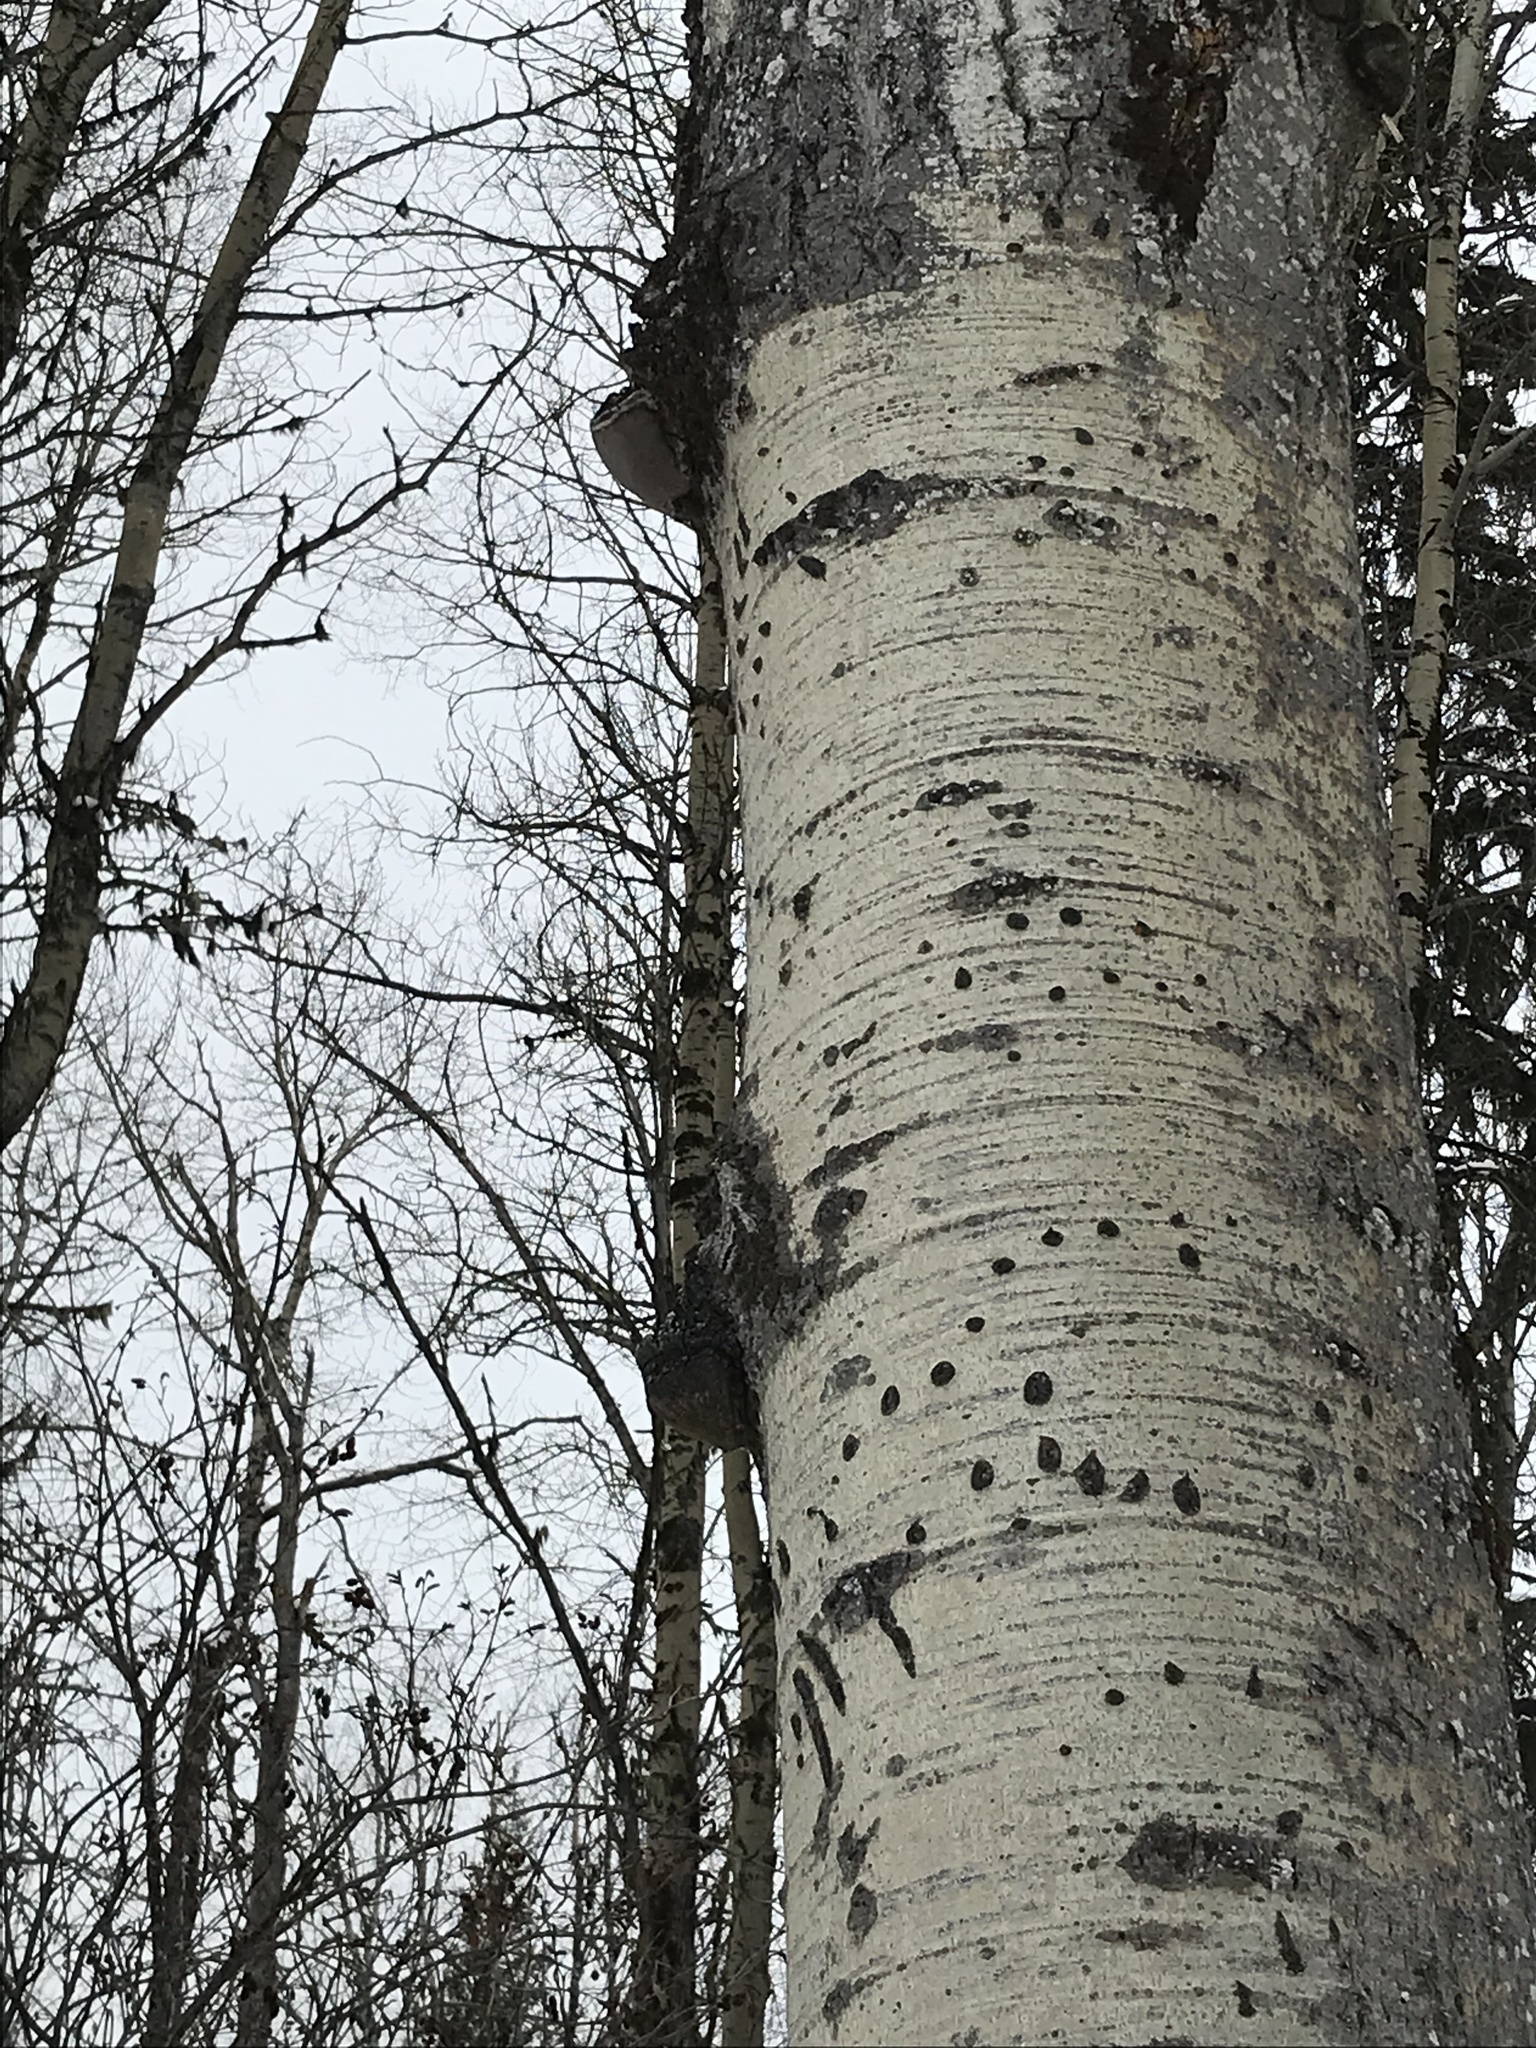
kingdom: Fungi
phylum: Basidiomycota
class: Agaricomycetes
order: Hymenochaetales
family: Hymenochaetaceae
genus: Phellinus
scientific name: Phellinus tremulae
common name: Aspen bracket
